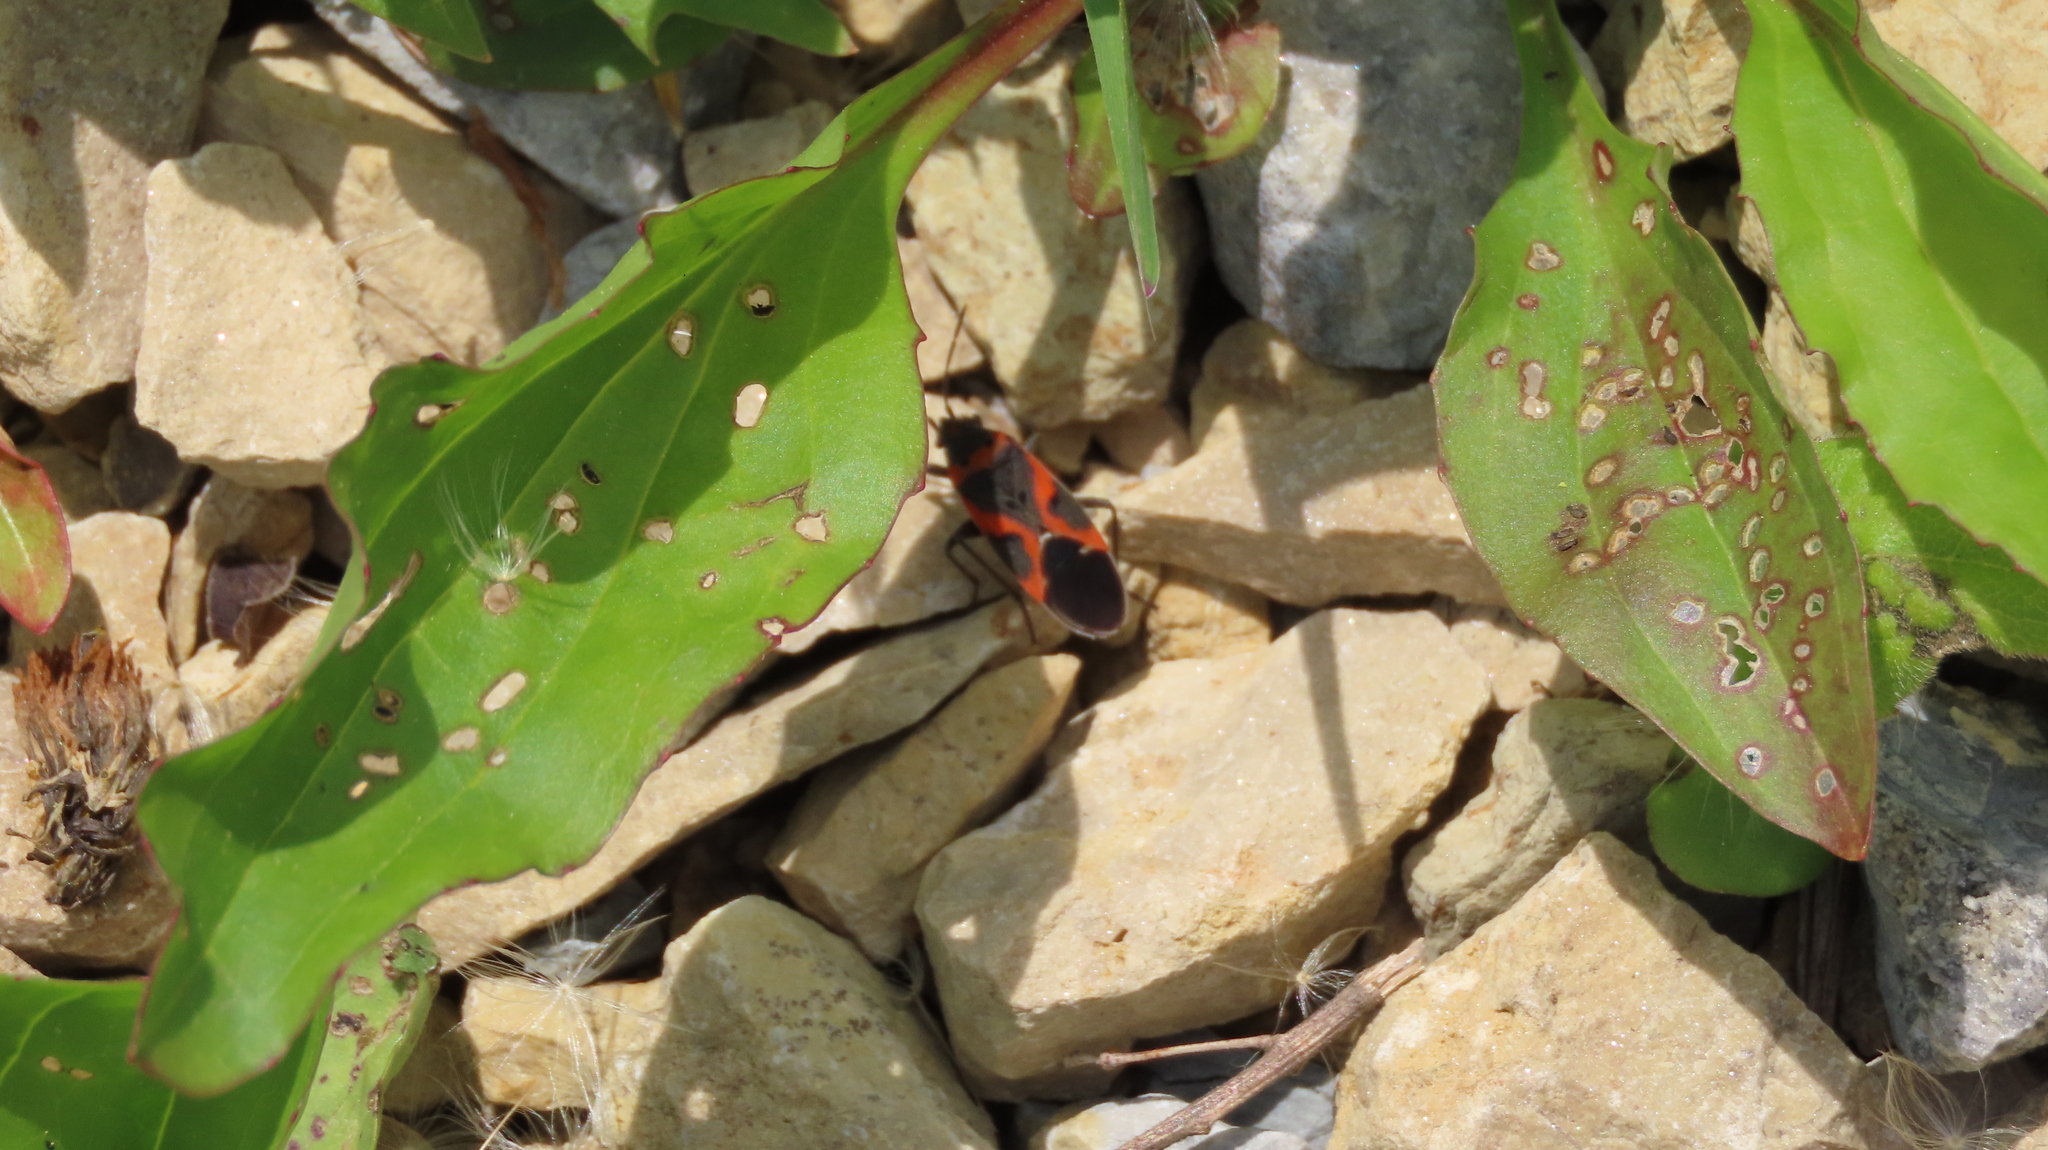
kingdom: Animalia
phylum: Arthropoda
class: Insecta
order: Hemiptera
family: Lygaeidae
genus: Lygaeus
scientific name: Lygaeus kalmii
